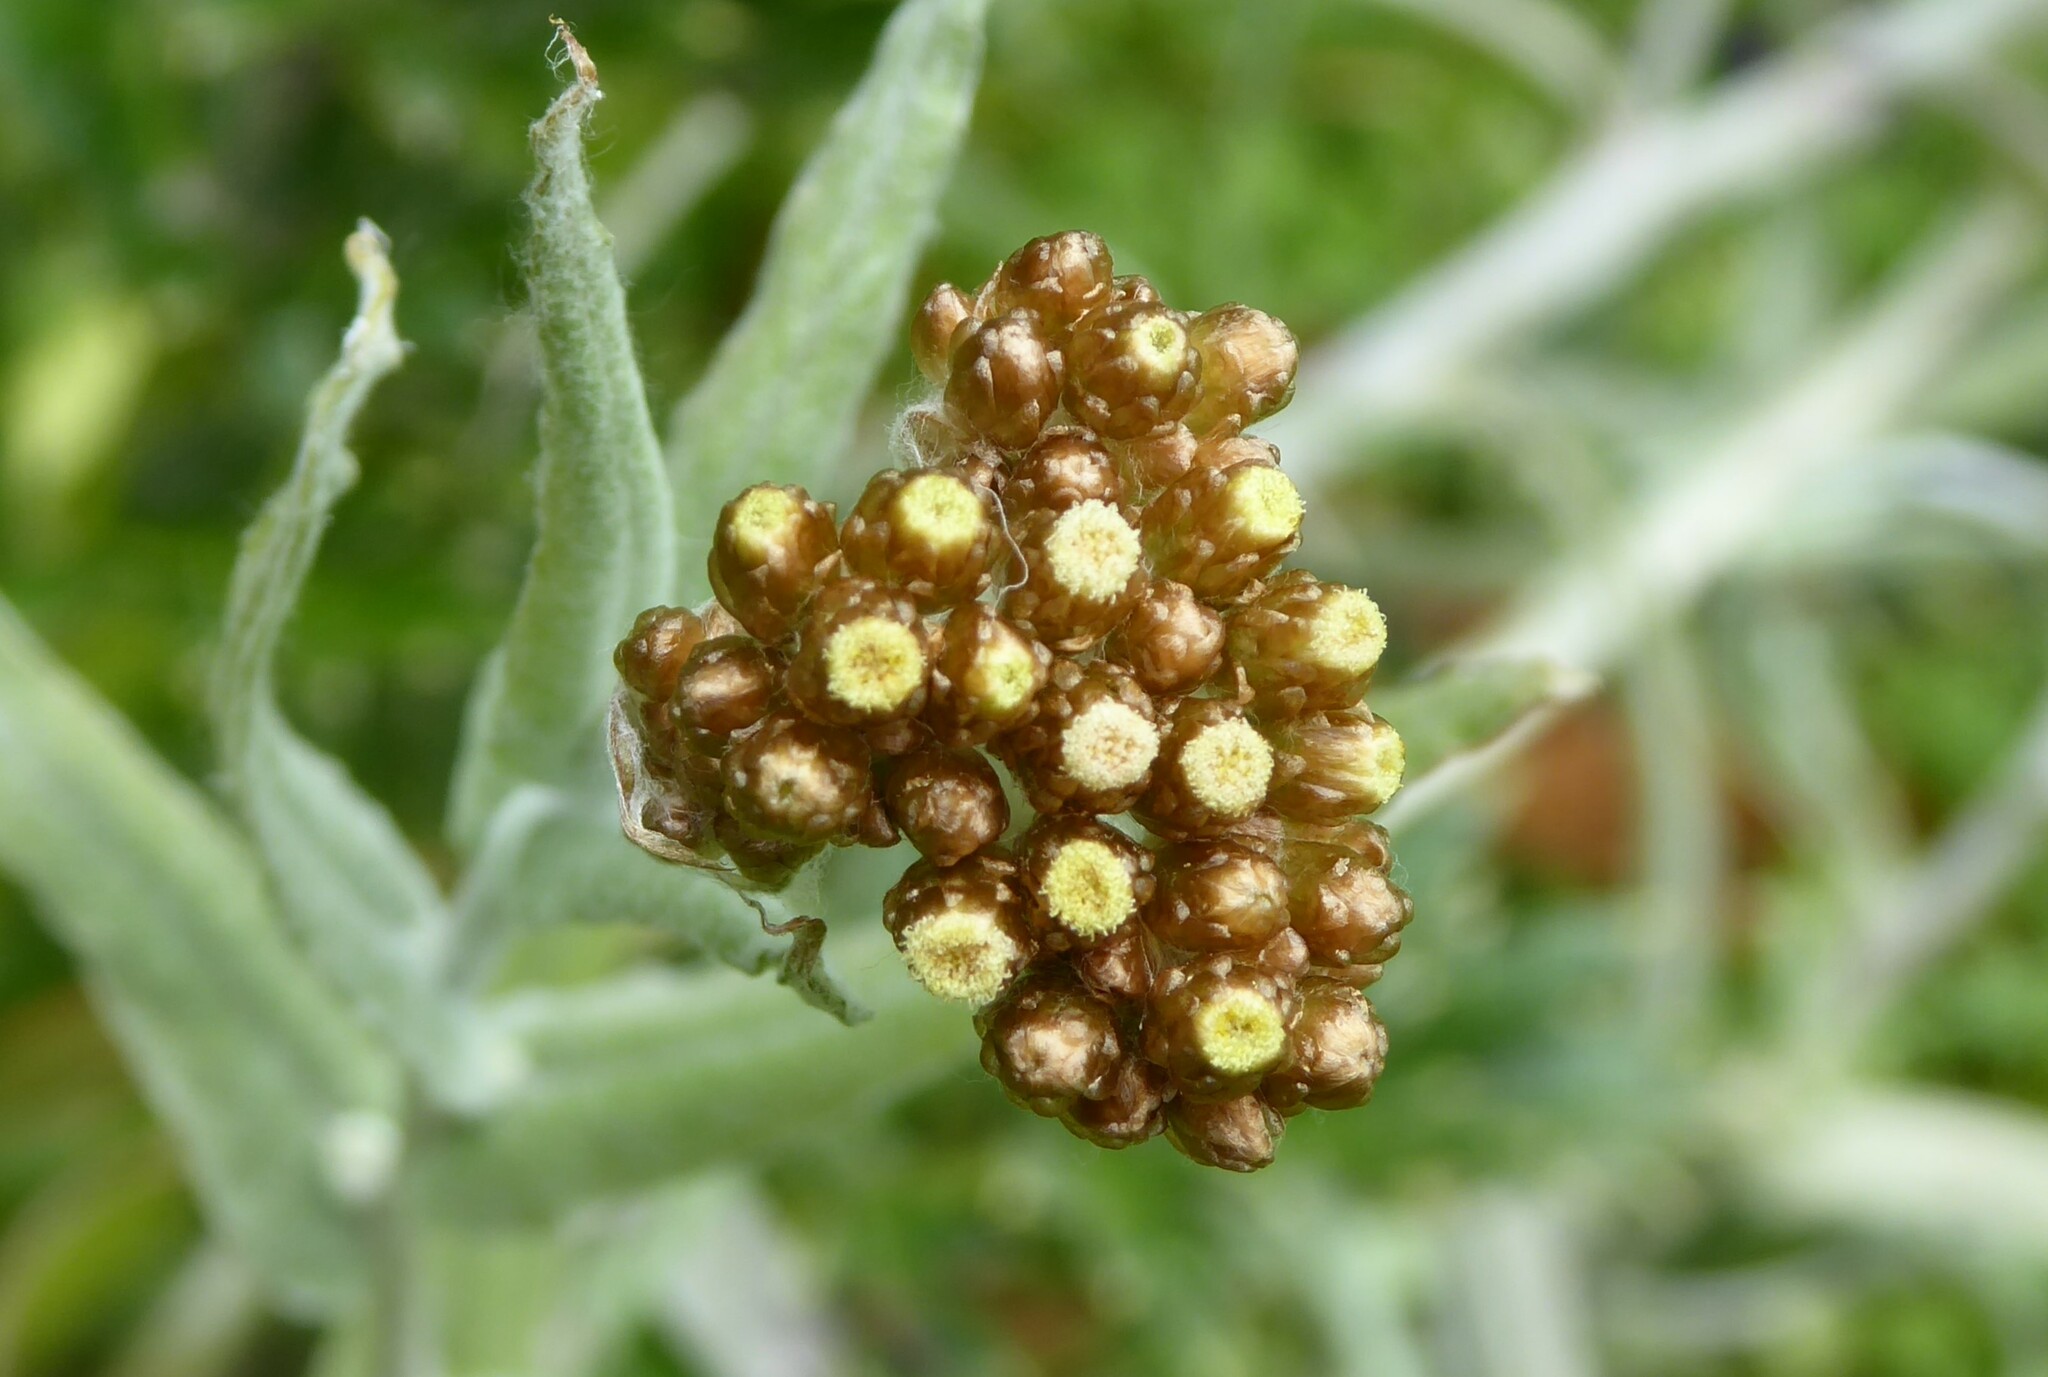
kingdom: Plantae
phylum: Tracheophyta
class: Magnoliopsida
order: Asterales
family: Asteraceae
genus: Helichrysum
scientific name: Helichrysum luteoalbum
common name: Daisy
